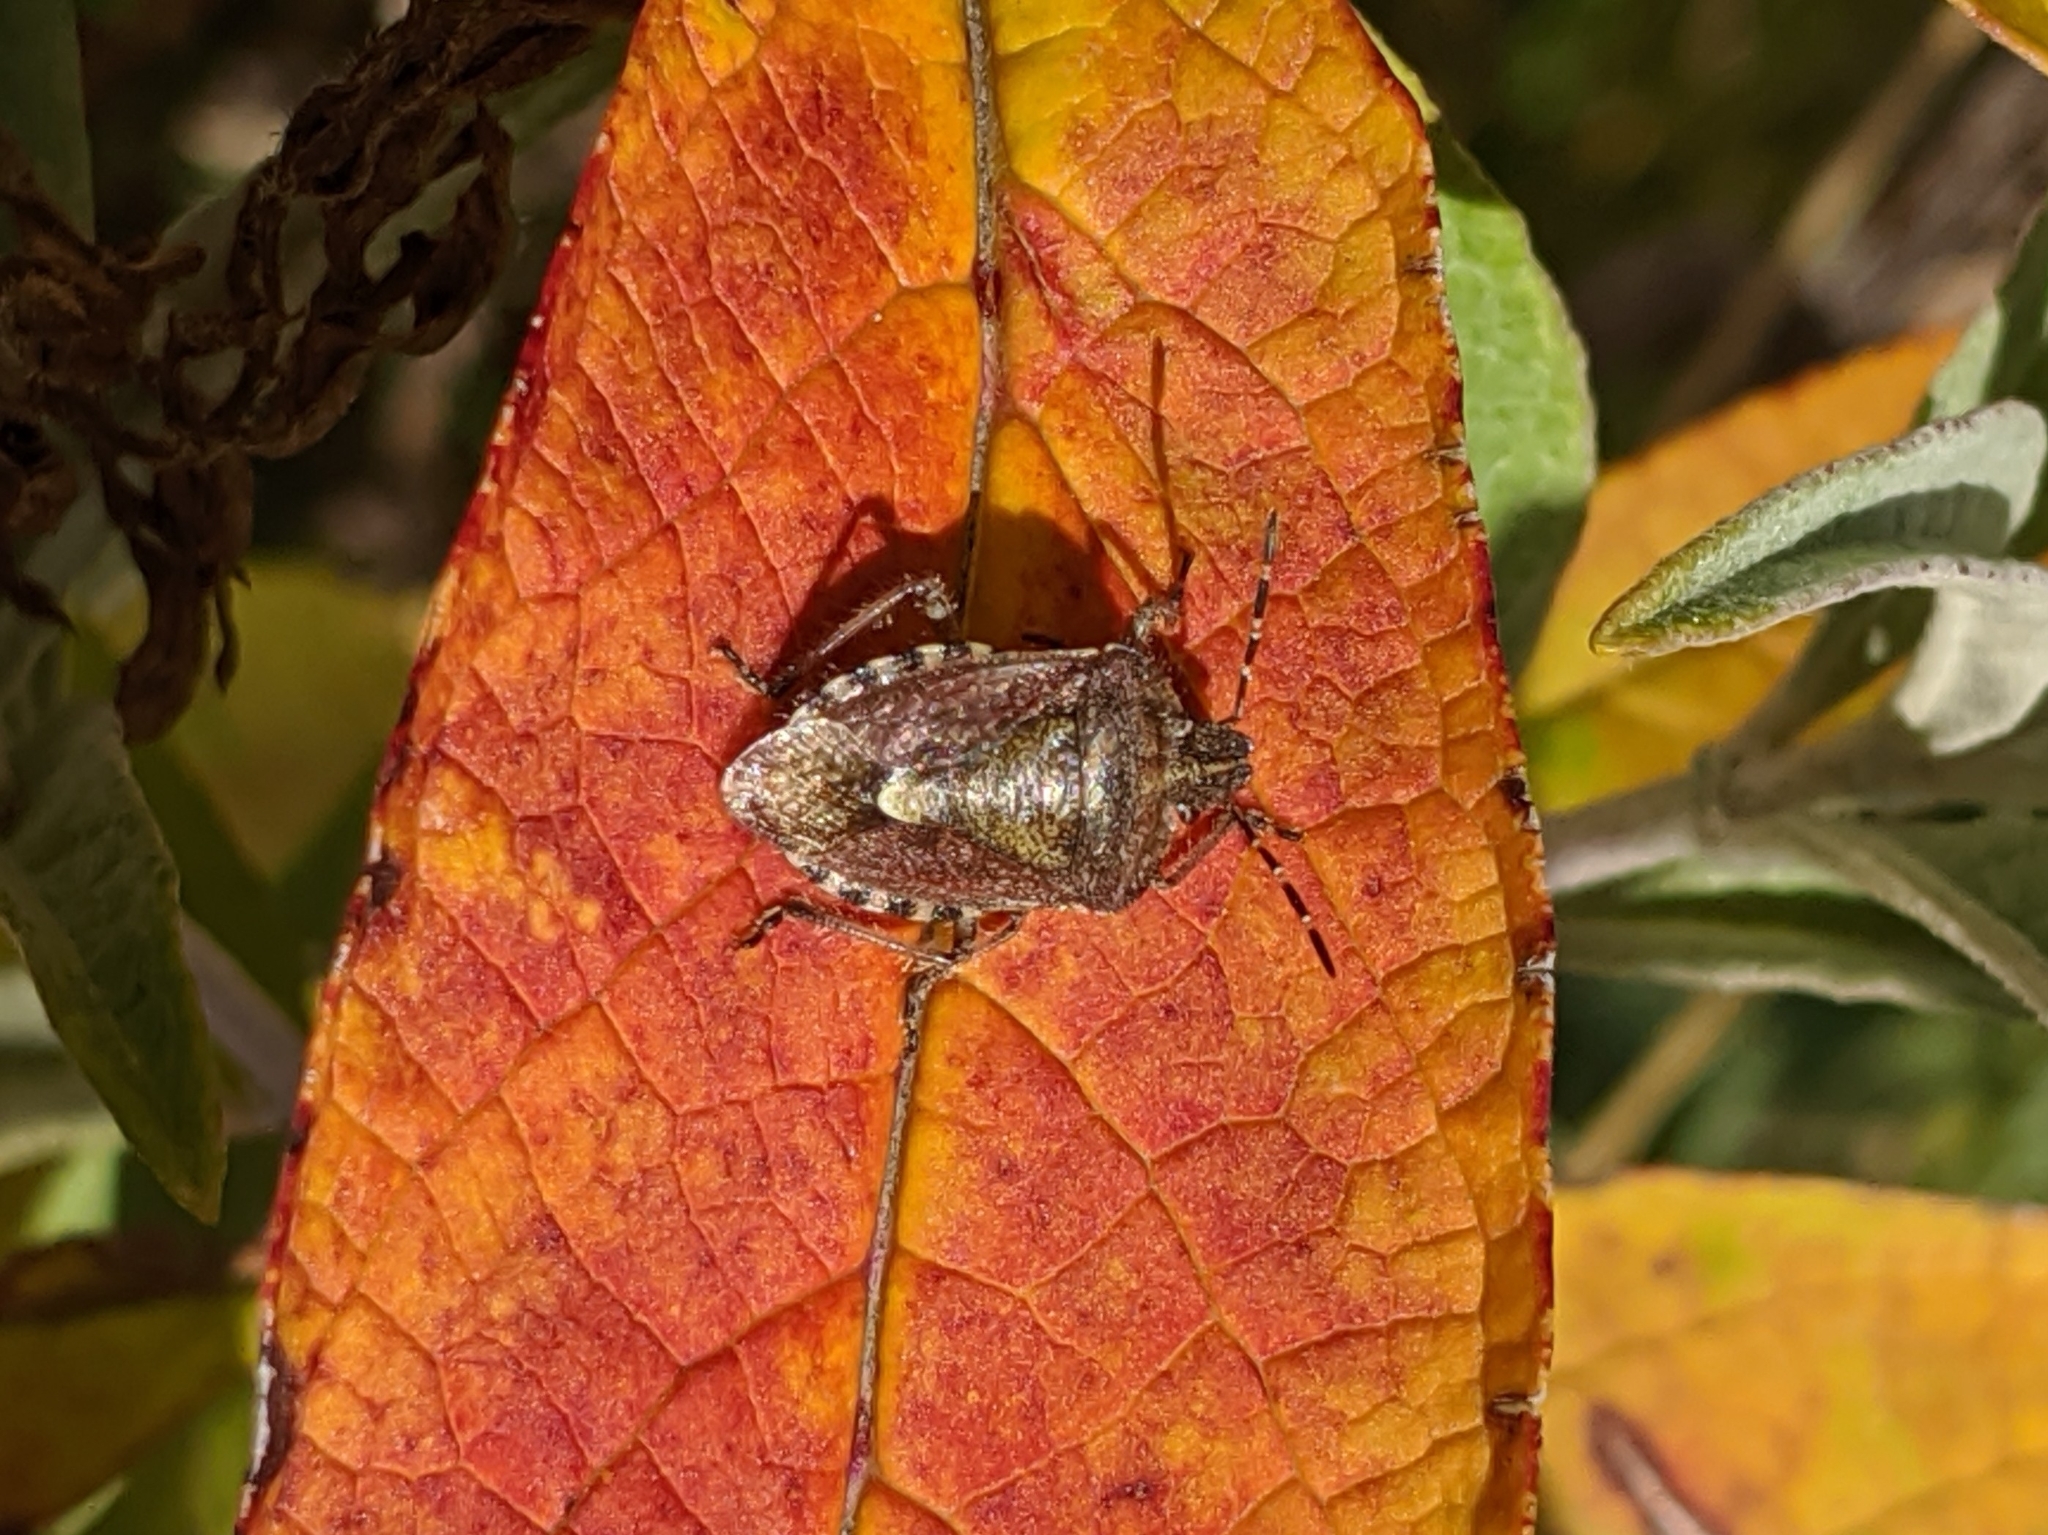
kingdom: Animalia
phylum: Arthropoda
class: Insecta
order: Hemiptera
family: Pentatomidae
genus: Dolycoris
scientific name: Dolycoris baccarum
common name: Sloe bug
